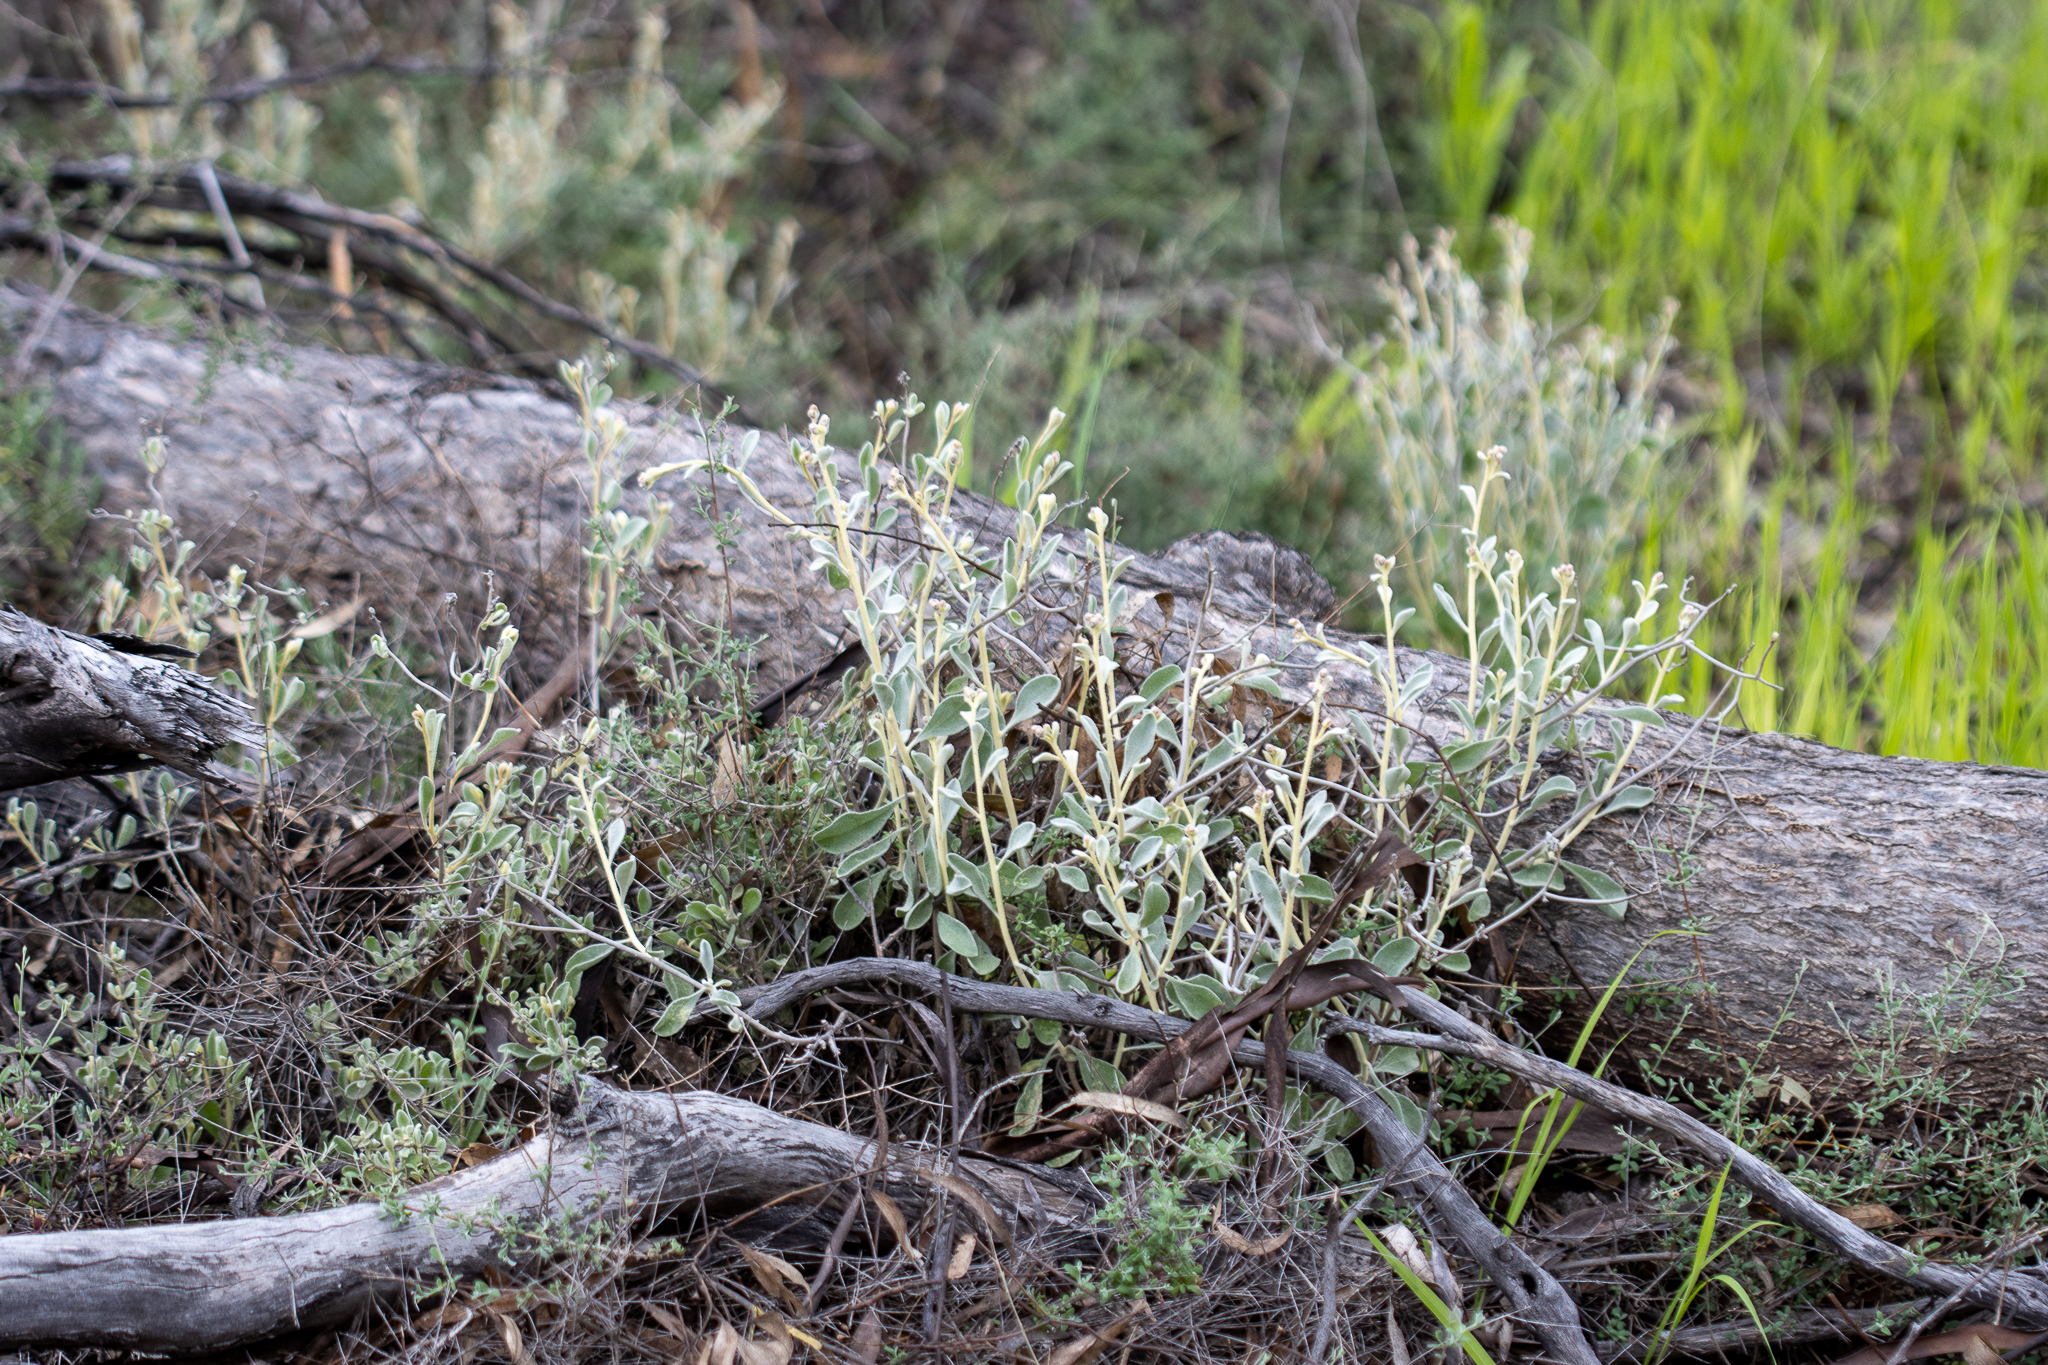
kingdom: Plantae
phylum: Tracheophyta
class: Magnoliopsida
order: Caryophyllales
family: Amaranthaceae
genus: Ptilotus
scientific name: Ptilotus obovatus
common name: Cottonbush
